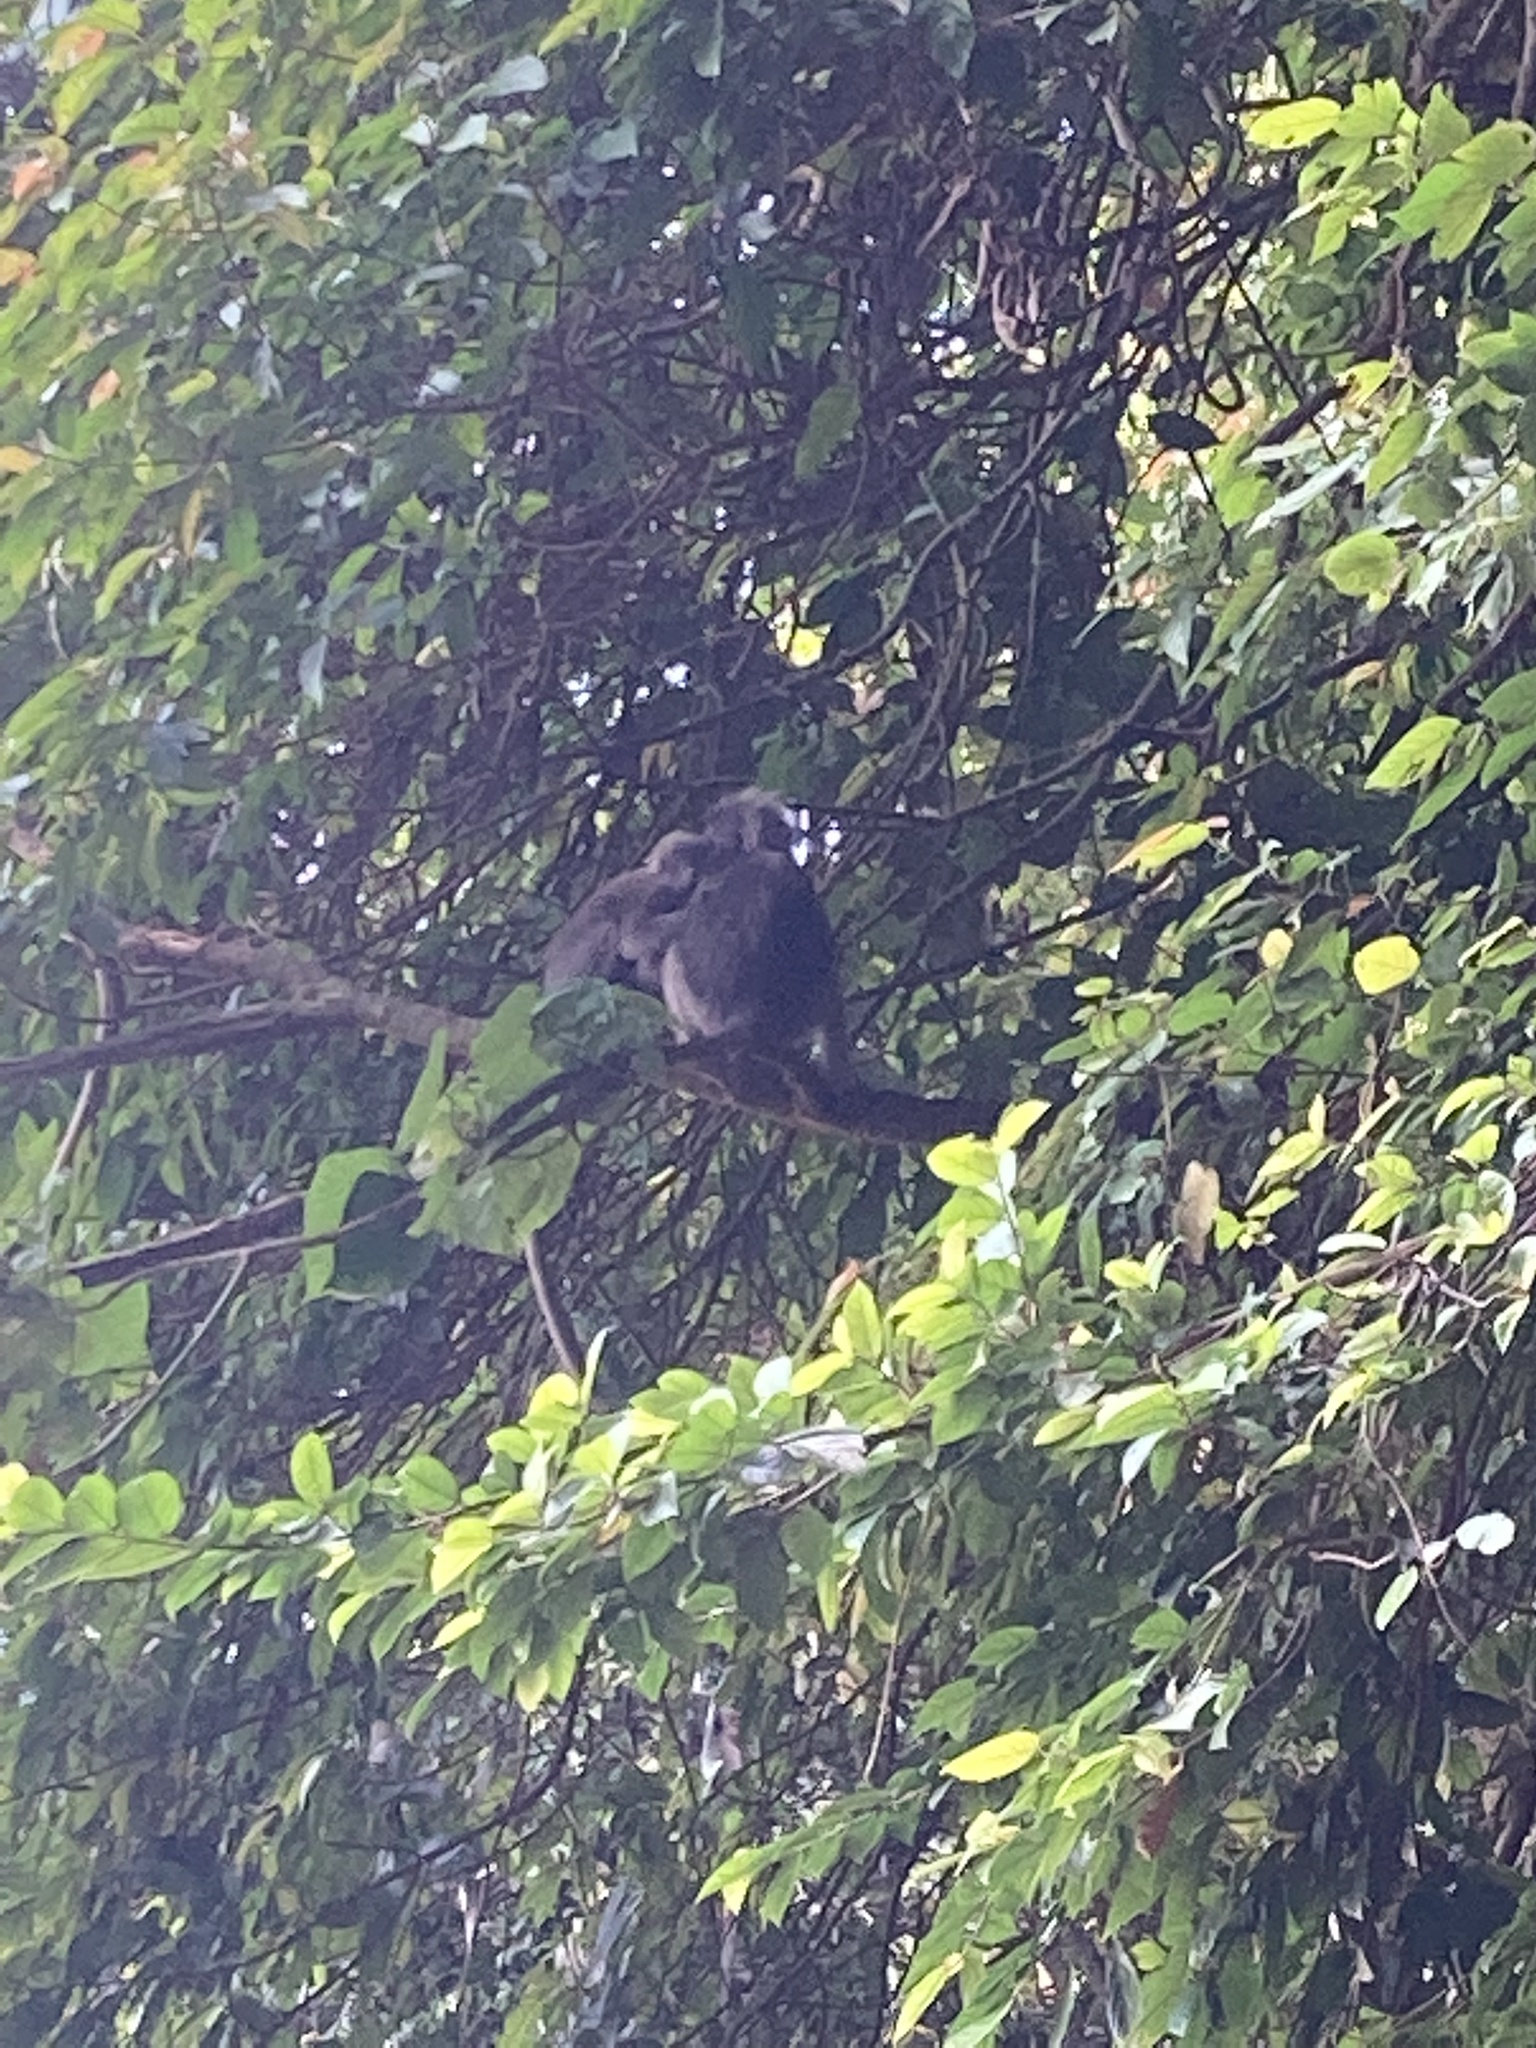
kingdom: Animalia
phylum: Chordata
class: Mammalia
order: Primates
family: Cercopithecidae
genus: Trachypithecus
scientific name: Trachypithecus obscurus
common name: Dusky leaf-monkey
